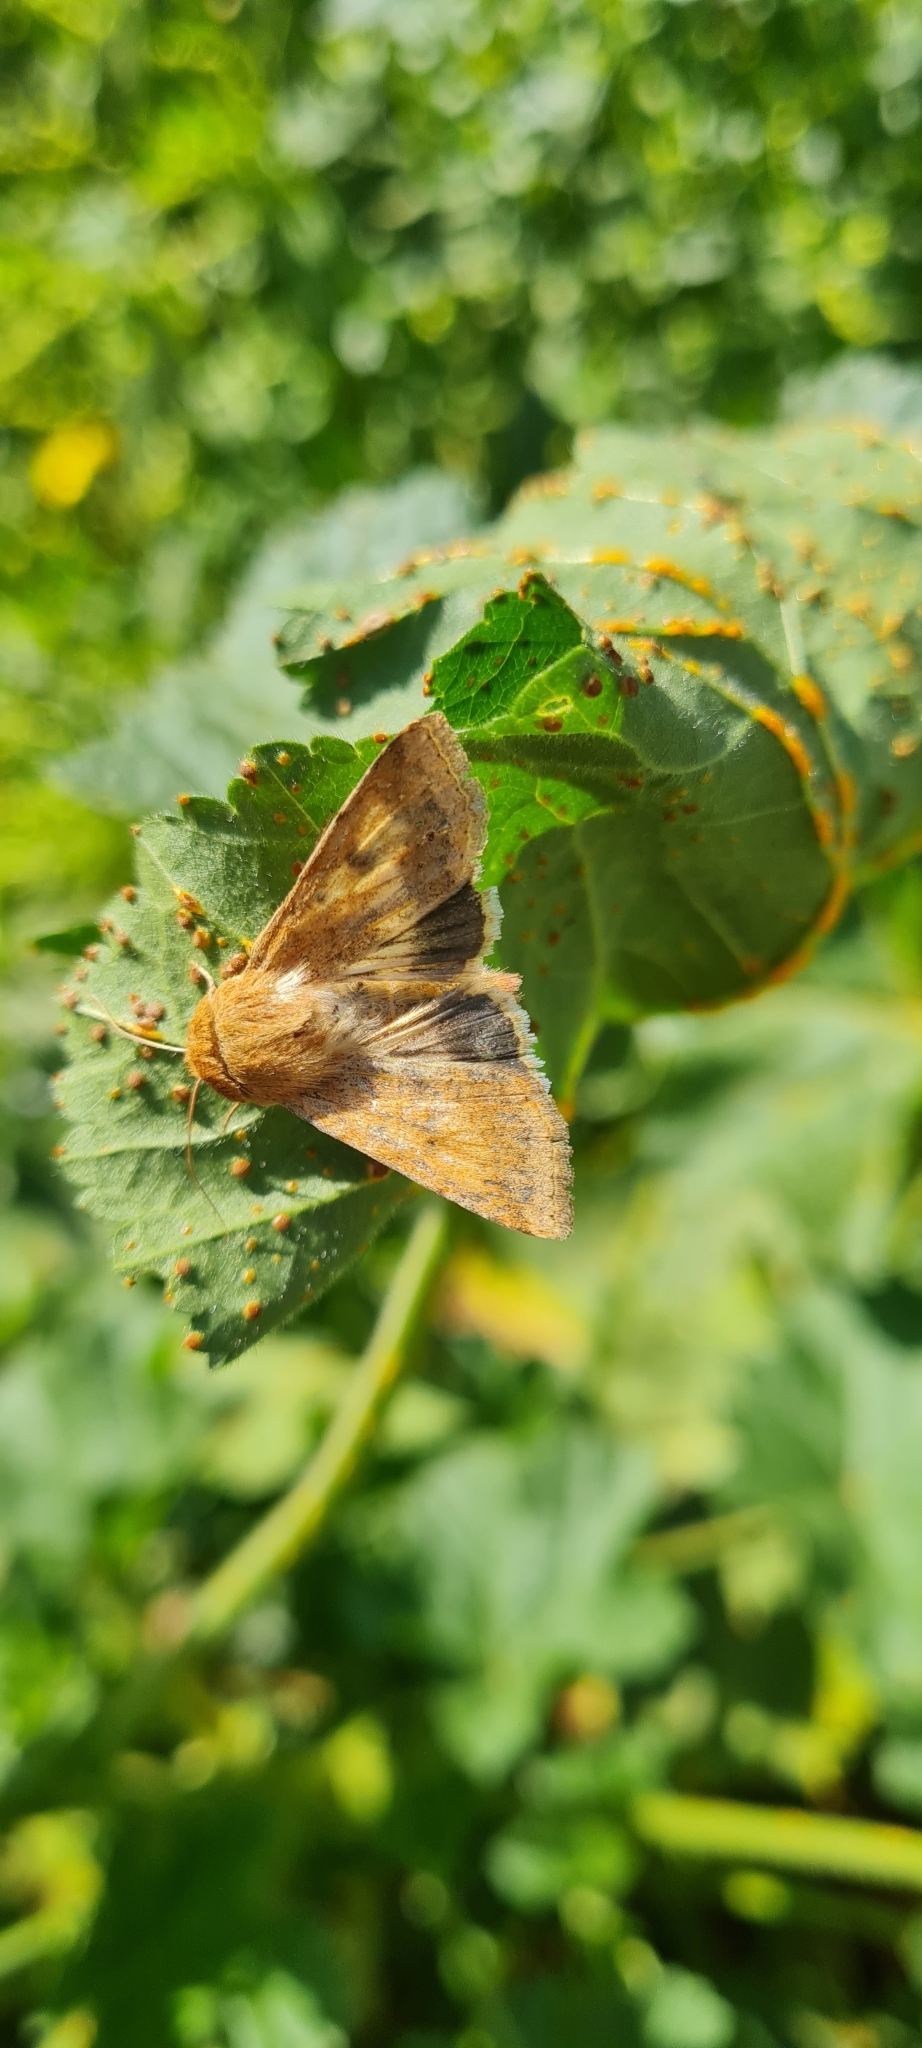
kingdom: Animalia
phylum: Arthropoda
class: Insecta
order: Lepidoptera
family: Noctuidae
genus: Helicoverpa
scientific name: Helicoverpa armigera
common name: Cotton bollworm
